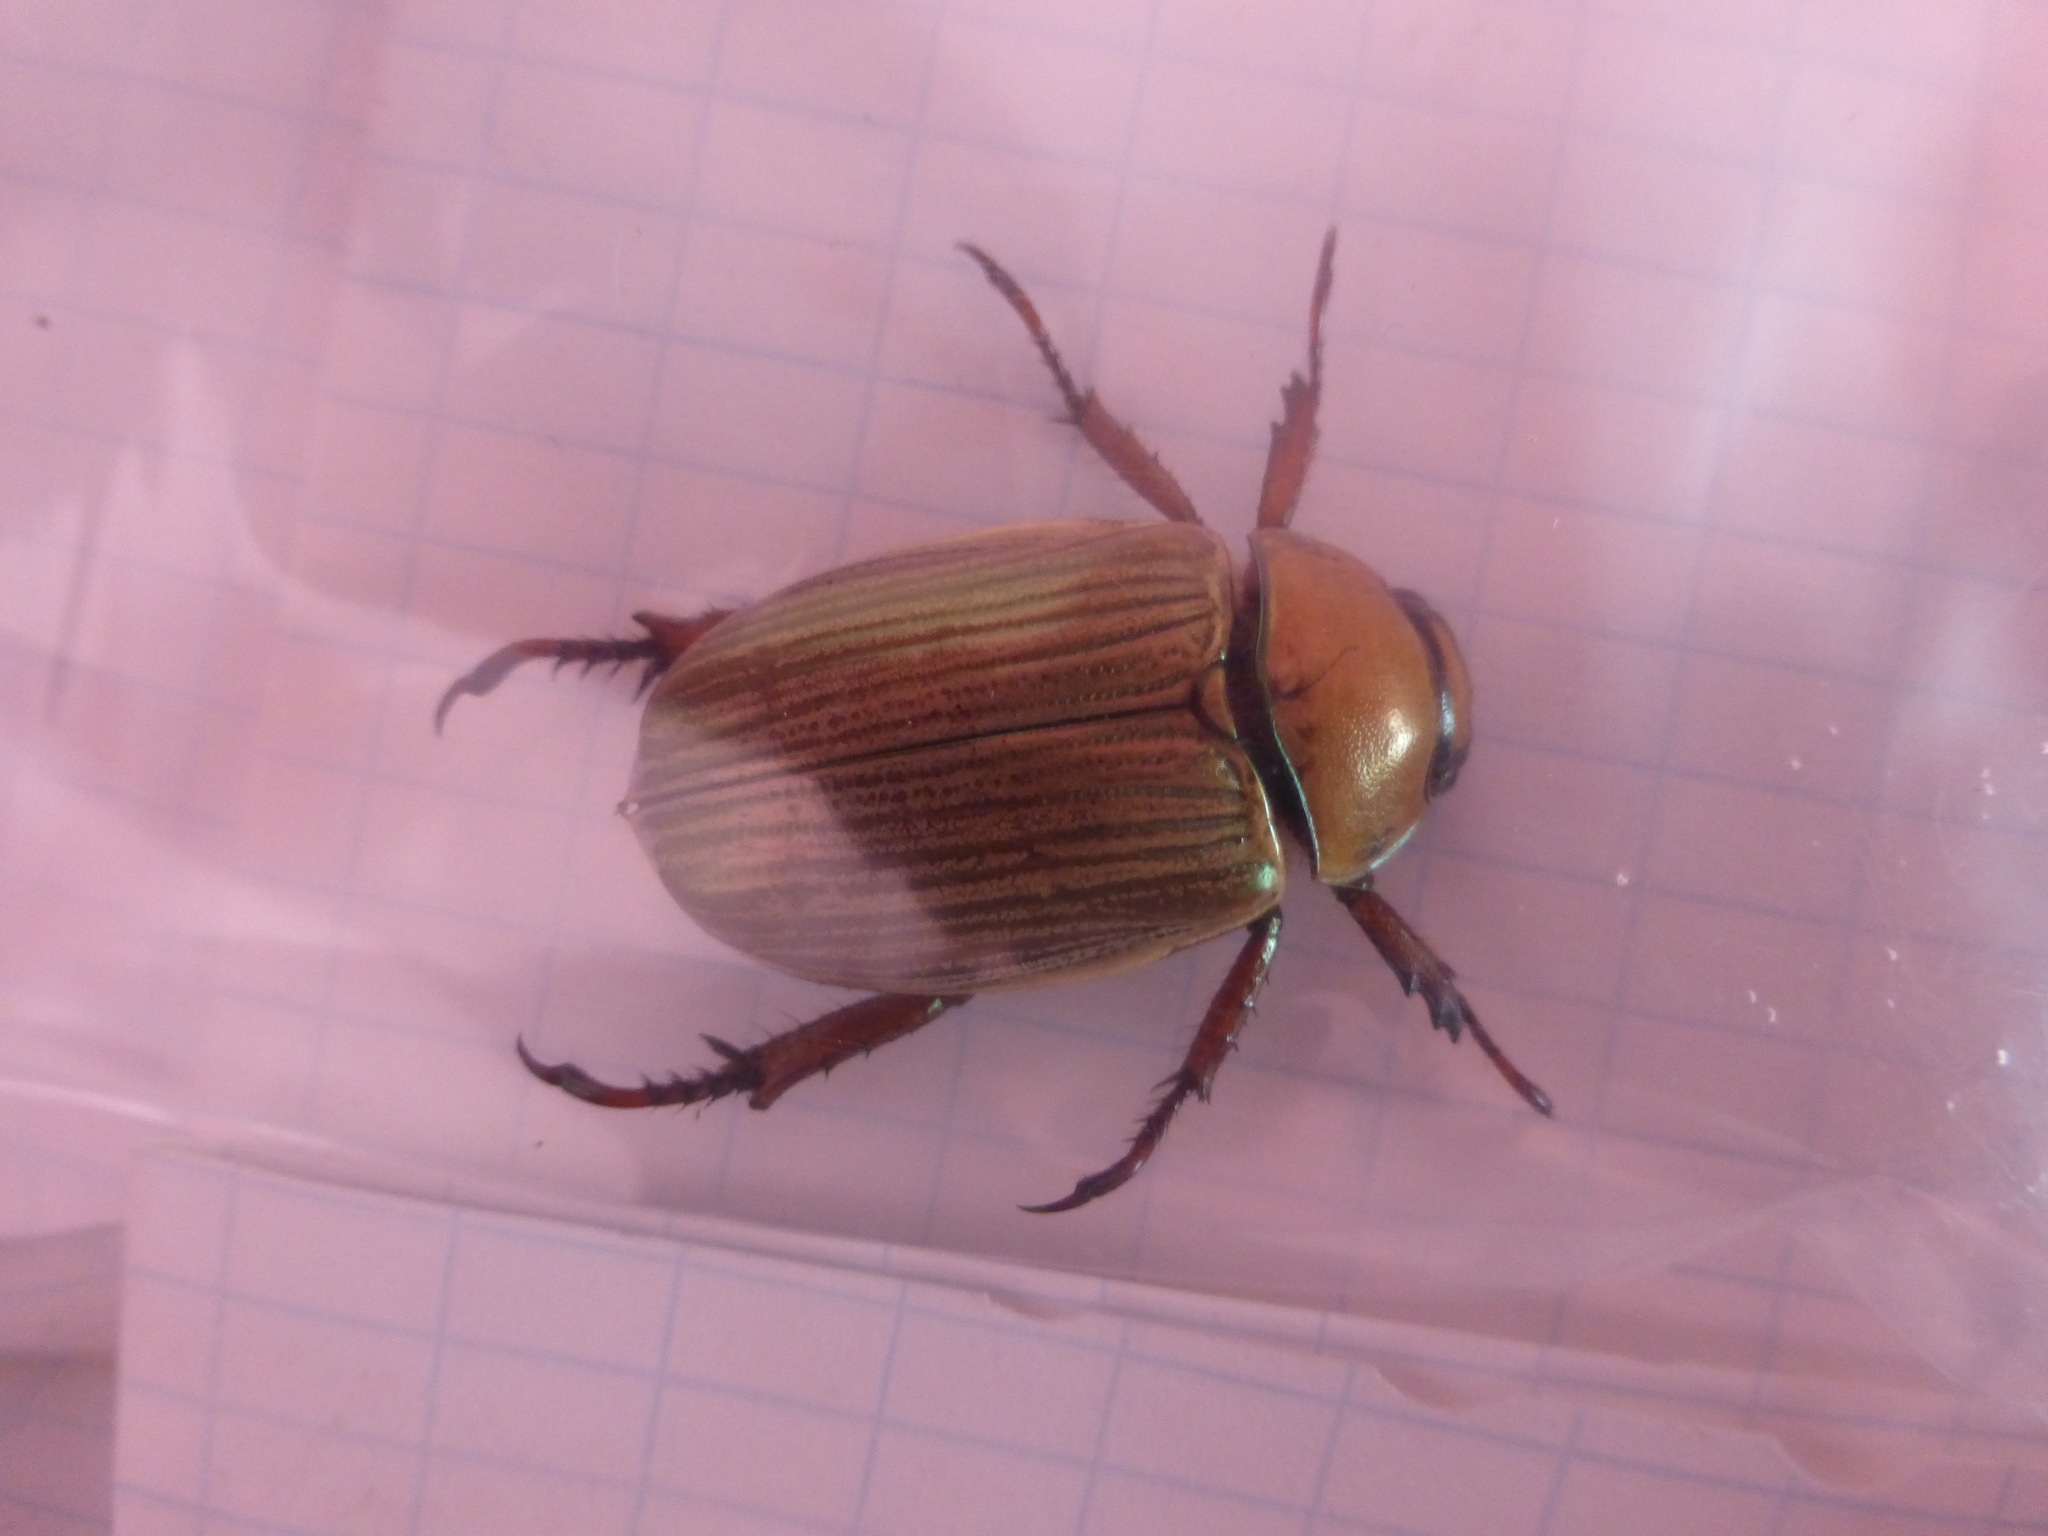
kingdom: Animalia
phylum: Arthropoda
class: Insecta
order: Coleoptera
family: Scarabaeidae
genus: Pelidnota
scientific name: Pelidnota bertrandi
